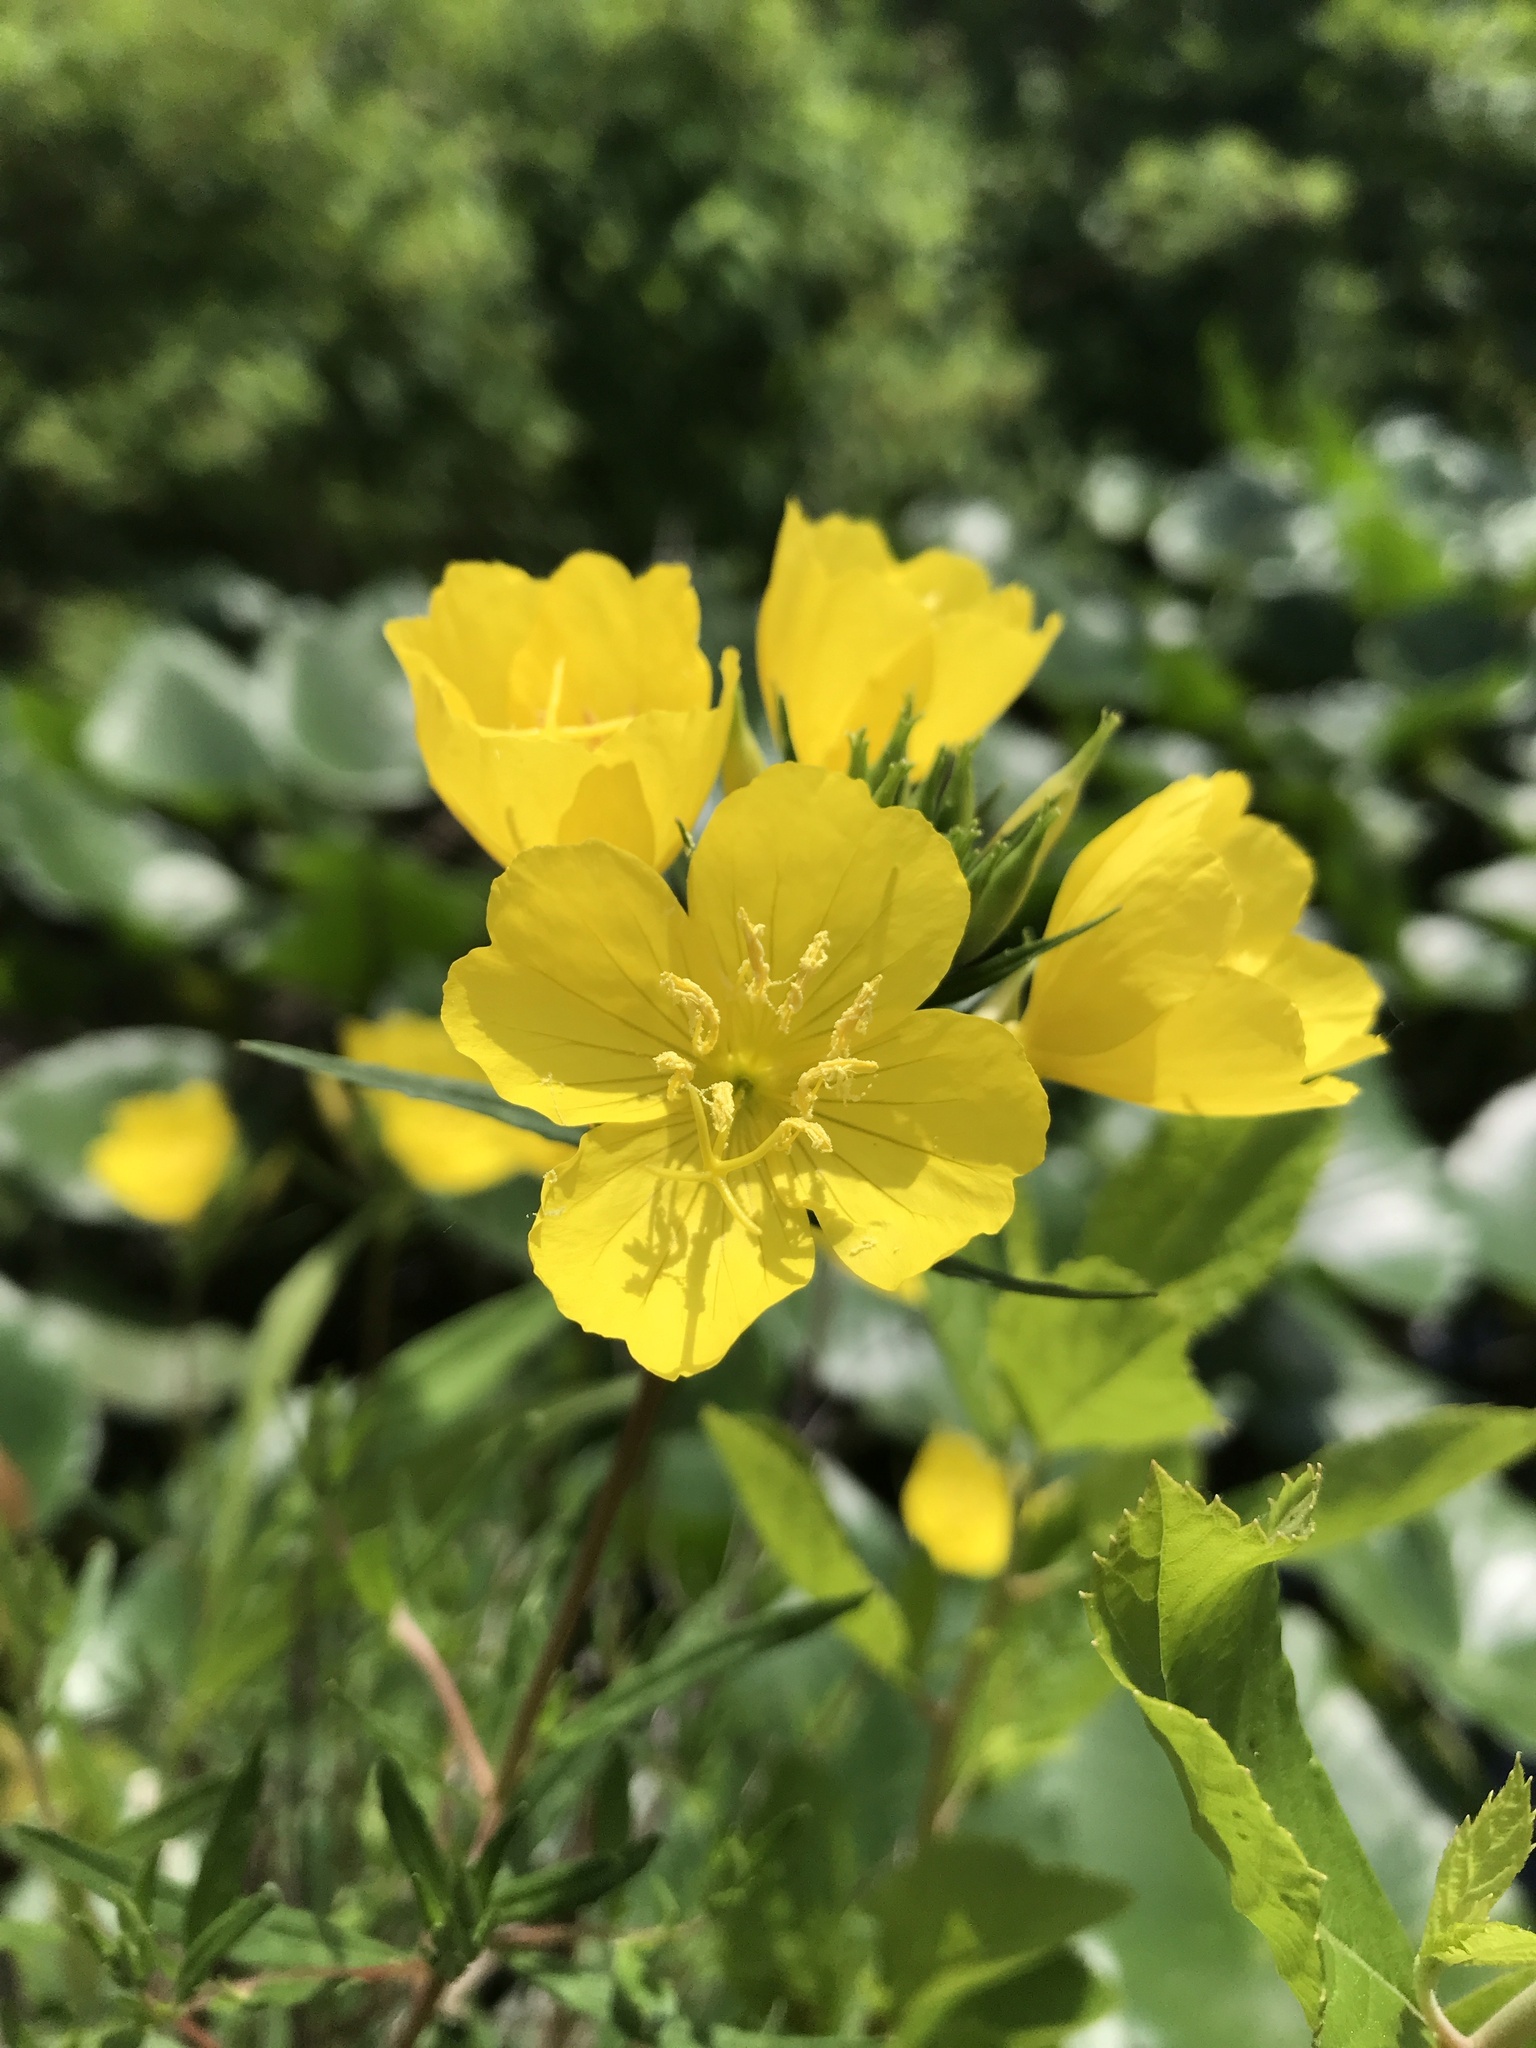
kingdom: Plantae
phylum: Tracheophyta
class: Magnoliopsida
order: Myrtales
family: Onagraceae
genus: Oenothera
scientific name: Oenothera fruticosa
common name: Southern sundrops
